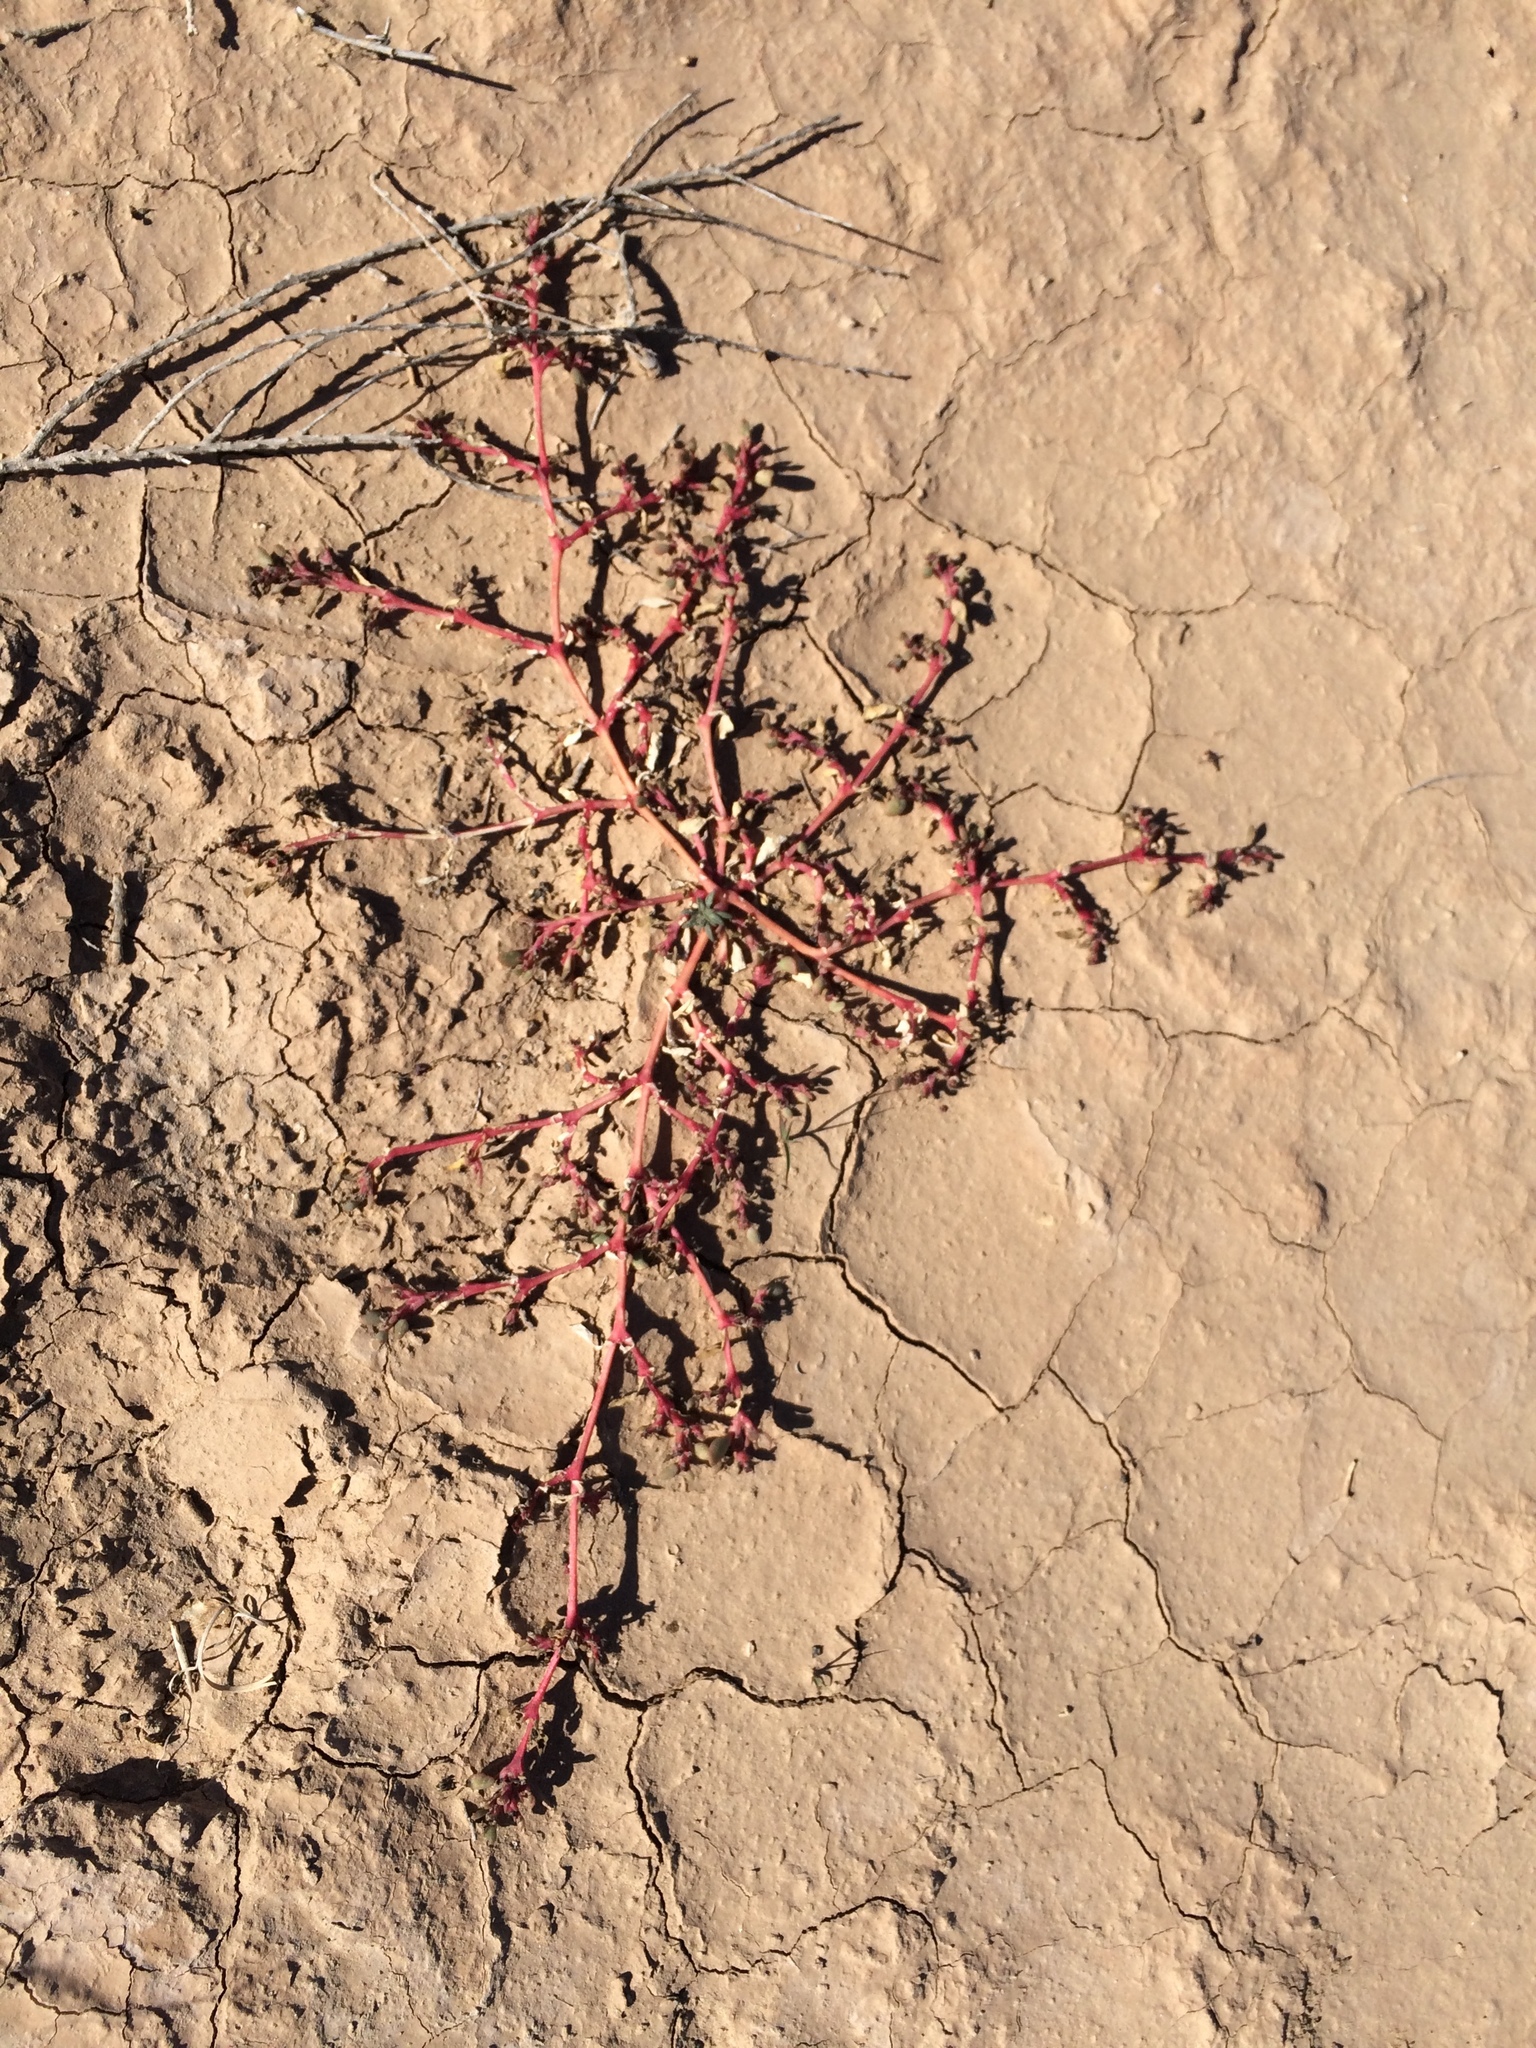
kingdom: Plantae
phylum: Tracheophyta
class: Magnoliopsida
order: Caryophyllales
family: Aizoaceae
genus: Trianthema
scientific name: Trianthema portulacastrum
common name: Desert horsepurslane
